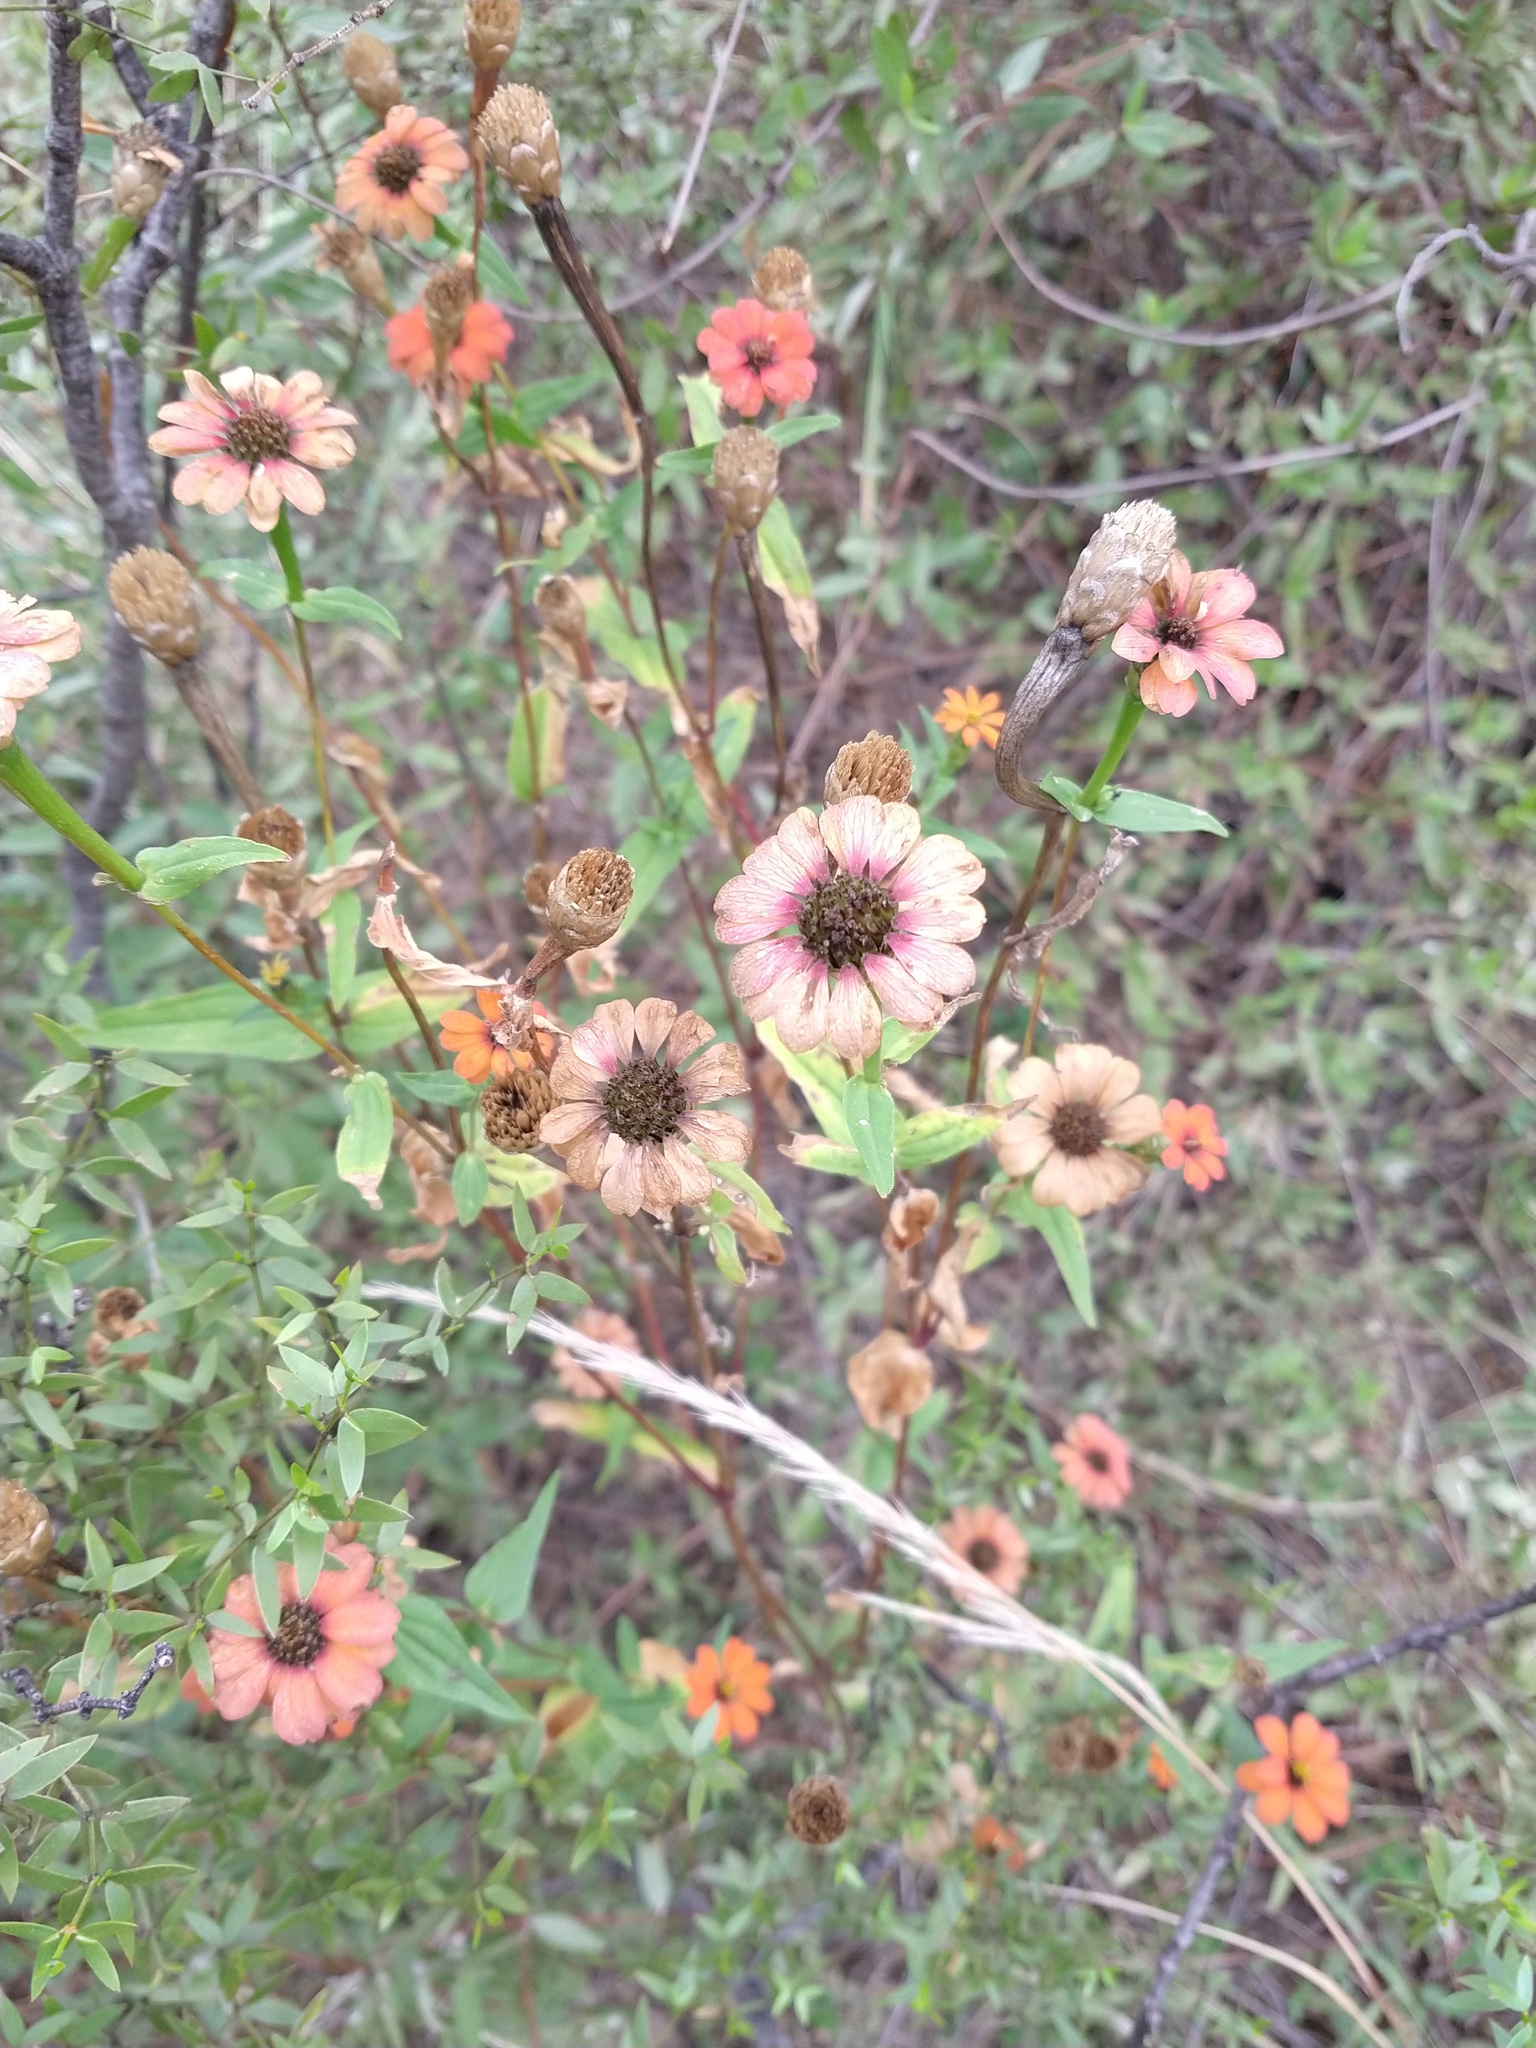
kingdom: Plantae
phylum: Tracheophyta
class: Magnoliopsida
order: Asterales
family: Asteraceae
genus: Zinnia
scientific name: Zinnia peruviana
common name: Peruvian zinnia
